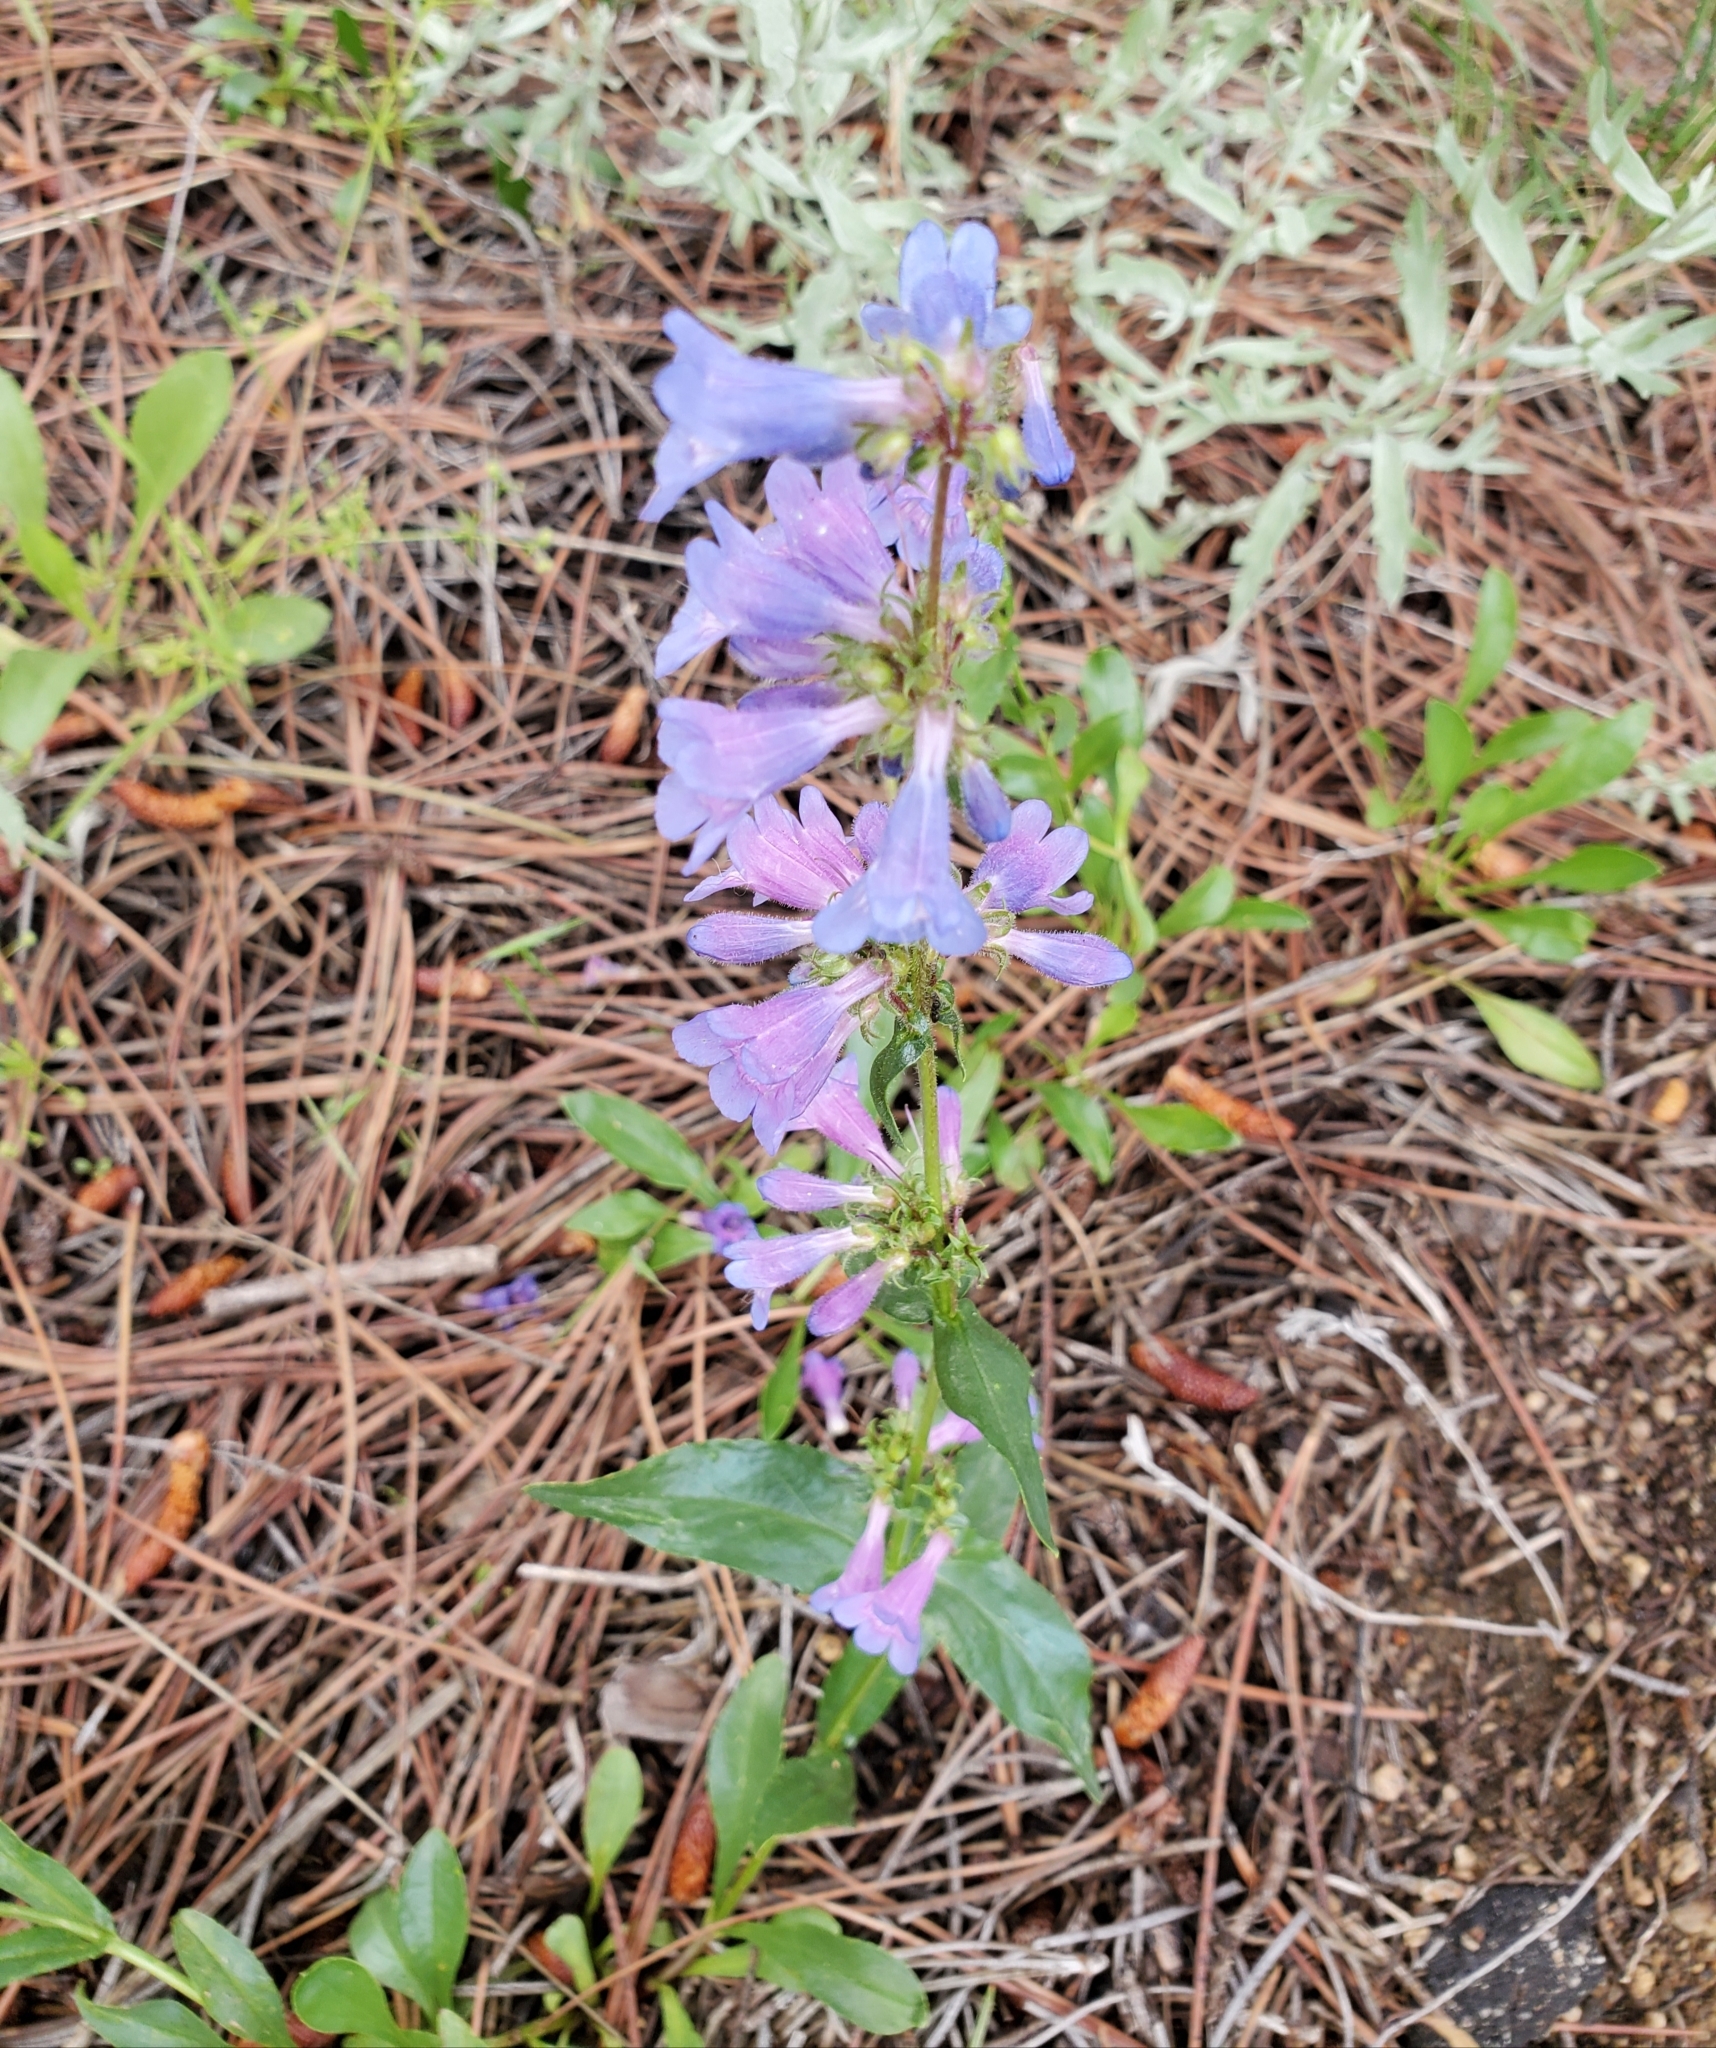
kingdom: Plantae
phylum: Tracheophyta
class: Magnoliopsida
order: Lamiales
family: Plantaginaceae
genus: Penstemon
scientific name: Penstemon virens
